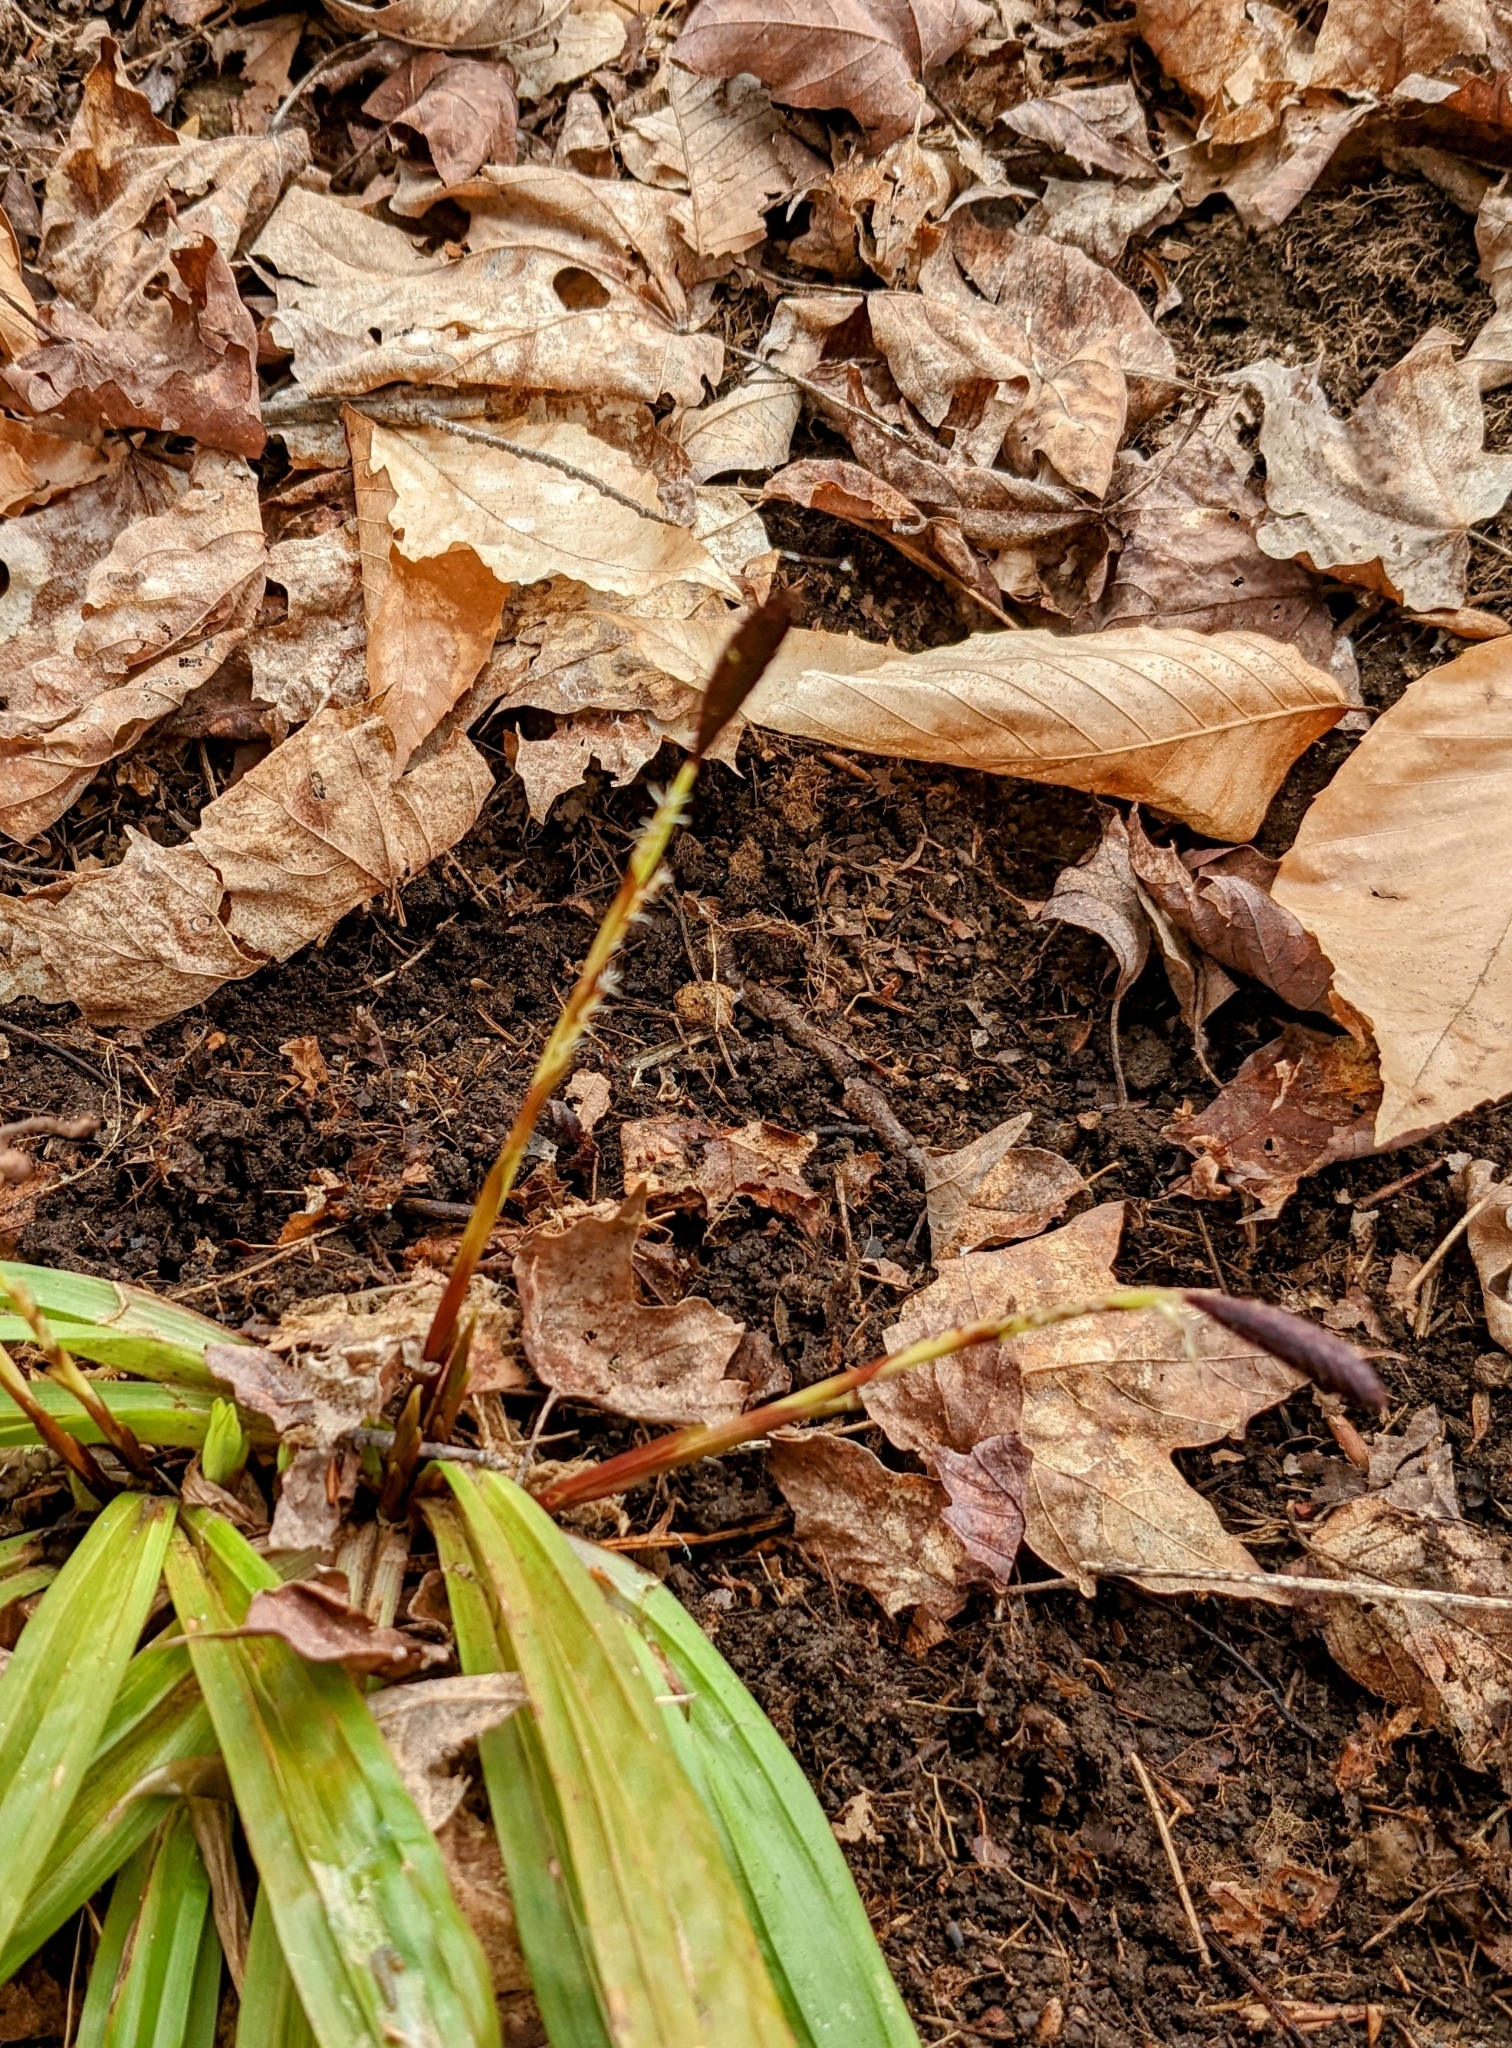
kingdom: Plantae
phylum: Tracheophyta
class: Liliopsida
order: Poales
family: Cyperaceae
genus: Carex
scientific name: Carex plantaginea
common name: Plantain-leaved sedge
